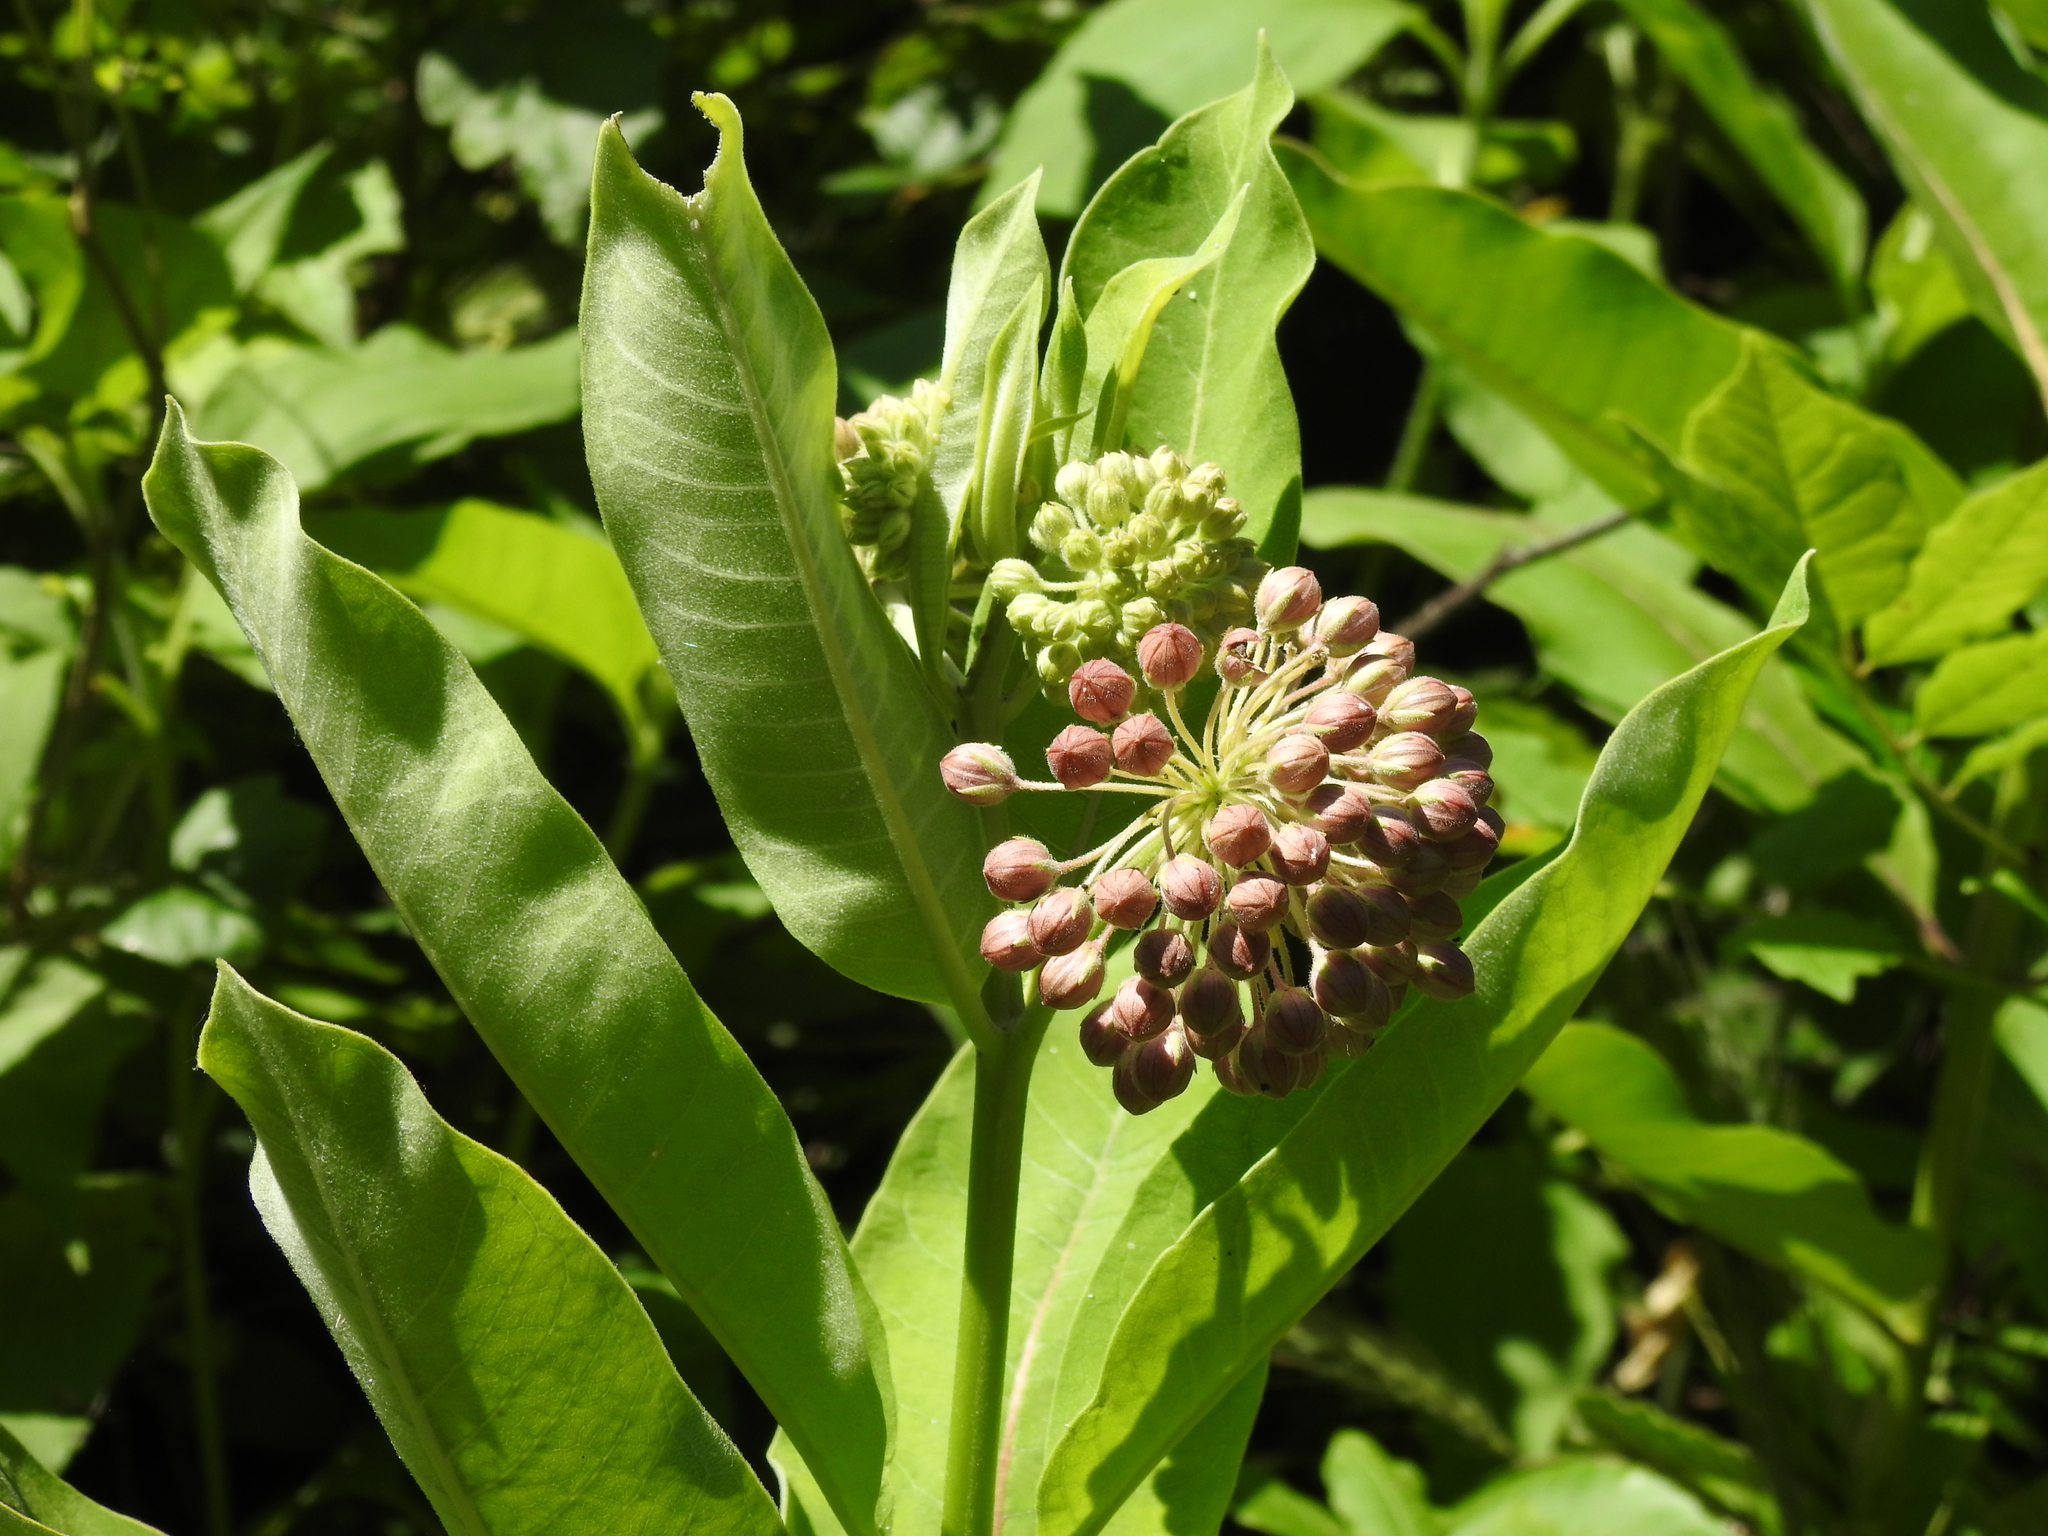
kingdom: Plantae
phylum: Tracheophyta
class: Magnoliopsida
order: Gentianales
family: Apocynaceae
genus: Asclepias
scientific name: Asclepias syriaca
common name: Common milkweed
